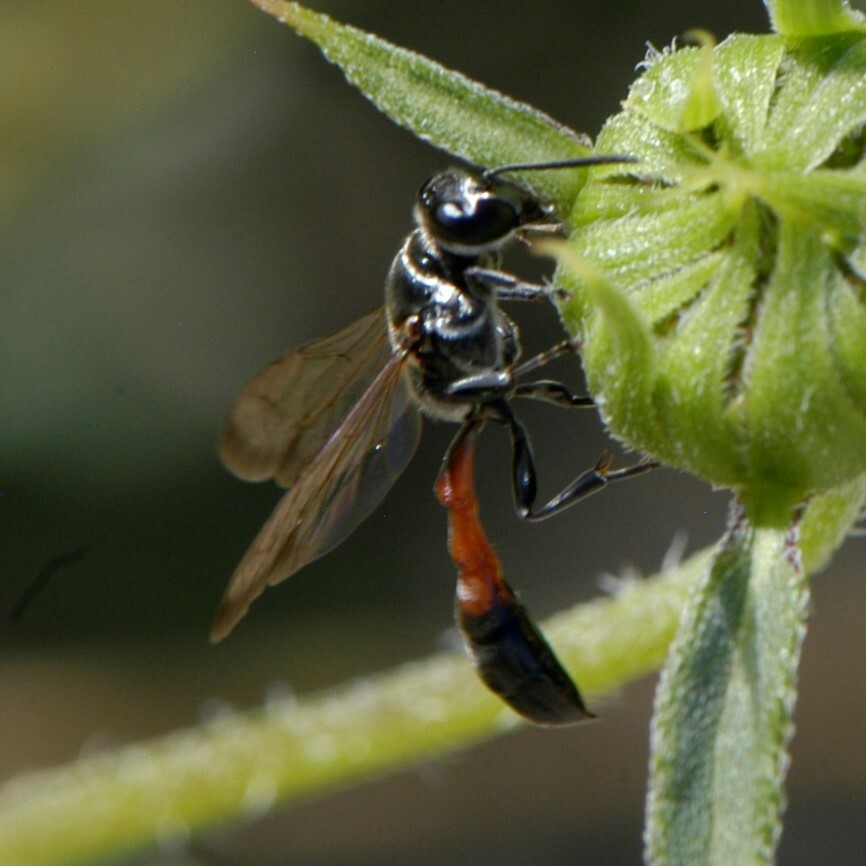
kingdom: Animalia
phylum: Arthropoda
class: Insecta
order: Hymenoptera
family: Crabronidae
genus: Trypoxylon
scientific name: Trypoxylon californicum
